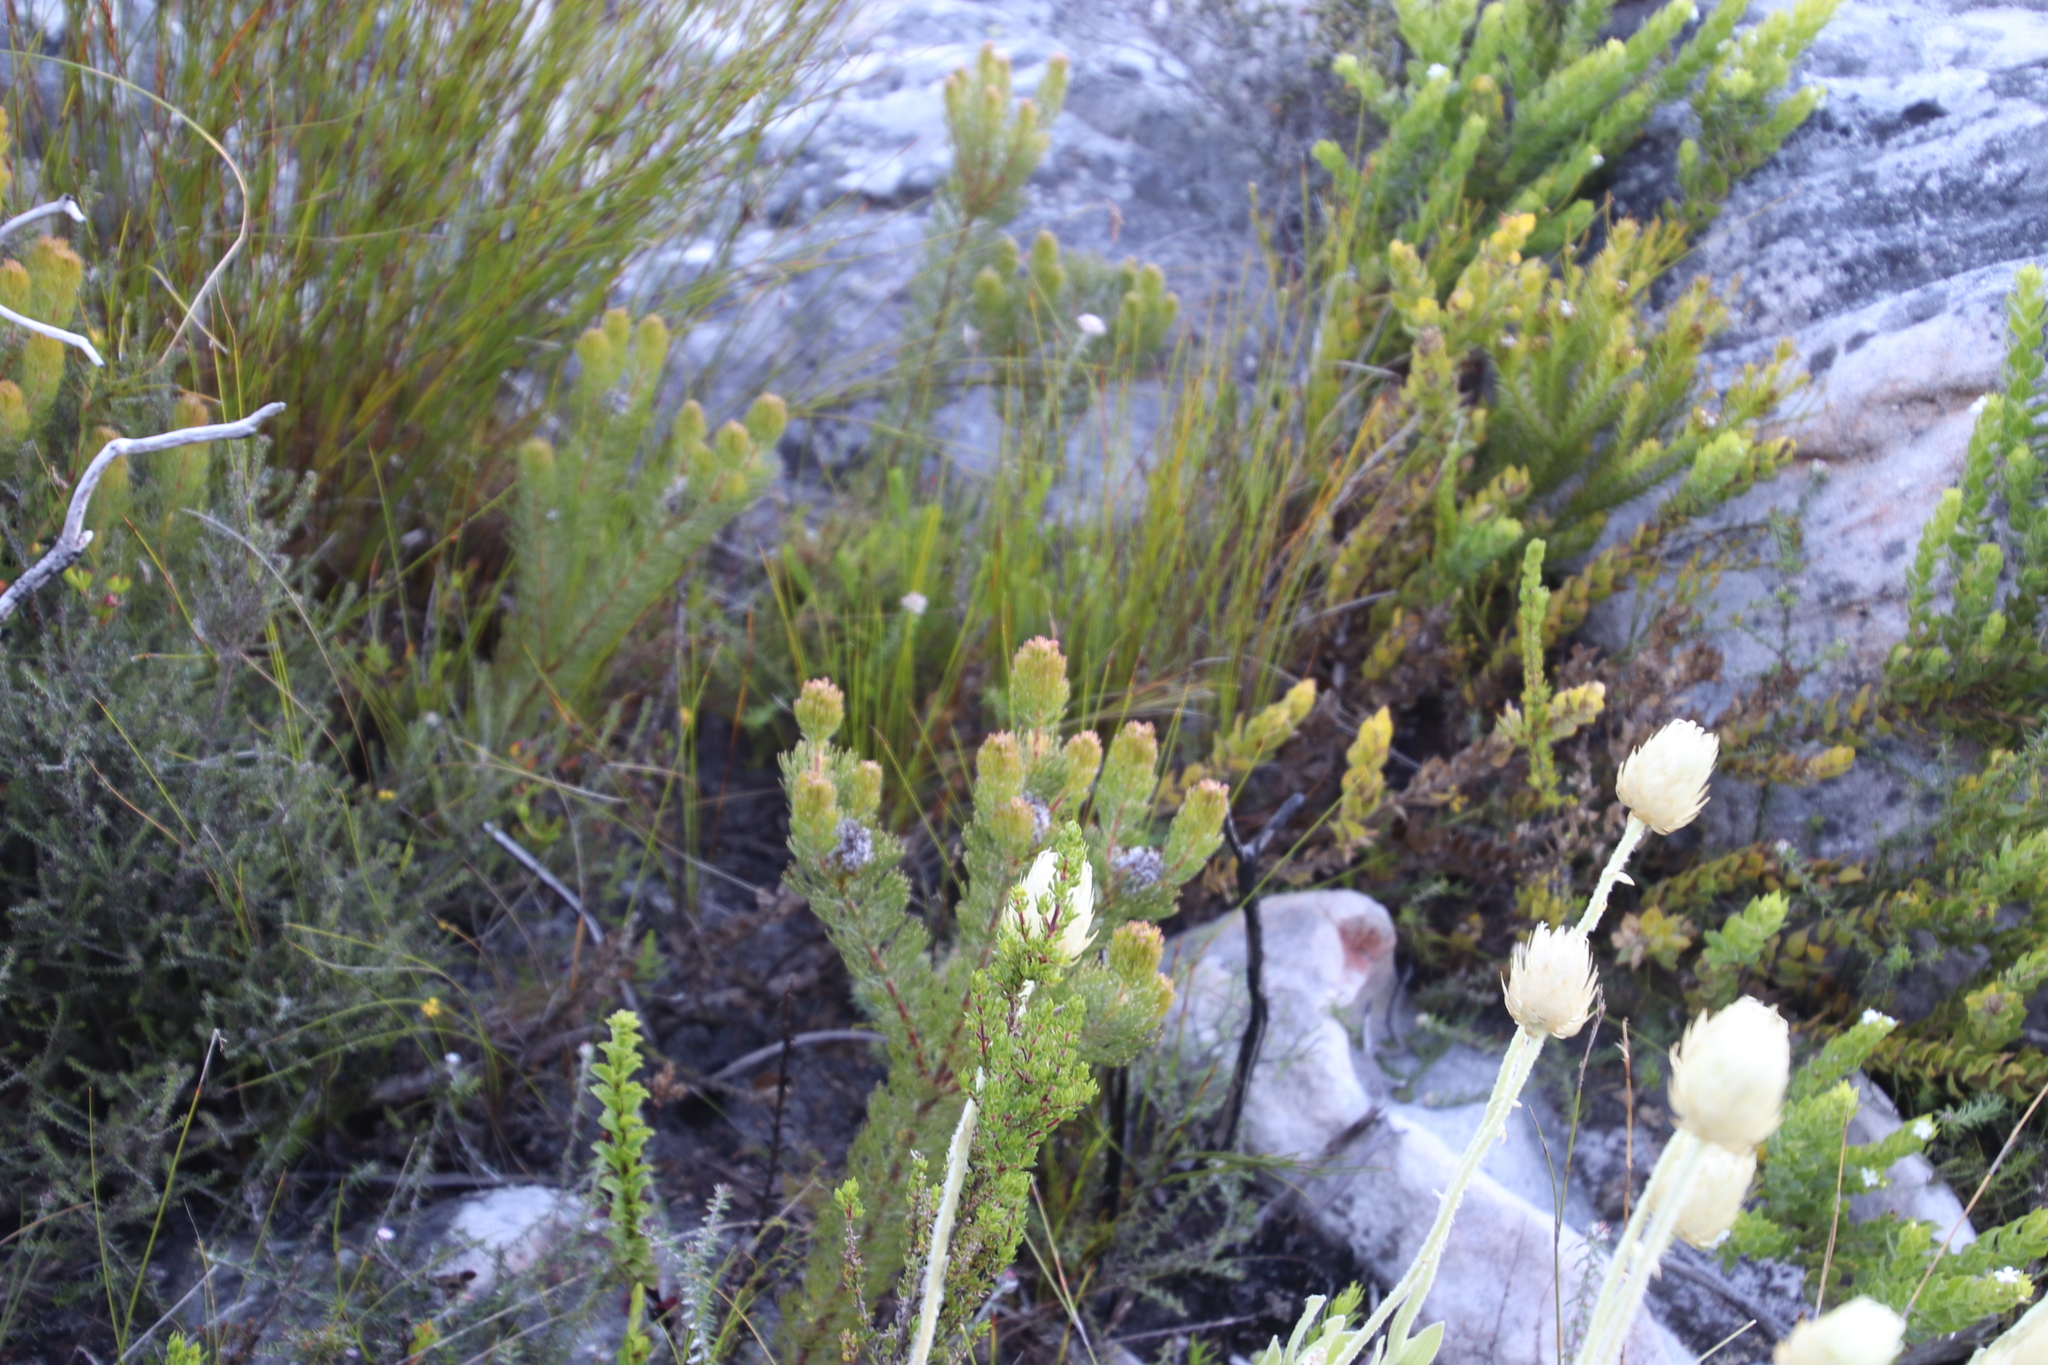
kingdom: Plantae
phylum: Tracheophyta
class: Magnoliopsida
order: Proteales
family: Proteaceae
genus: Serruria
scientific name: Serruria villosa
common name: Golden spiderhead
